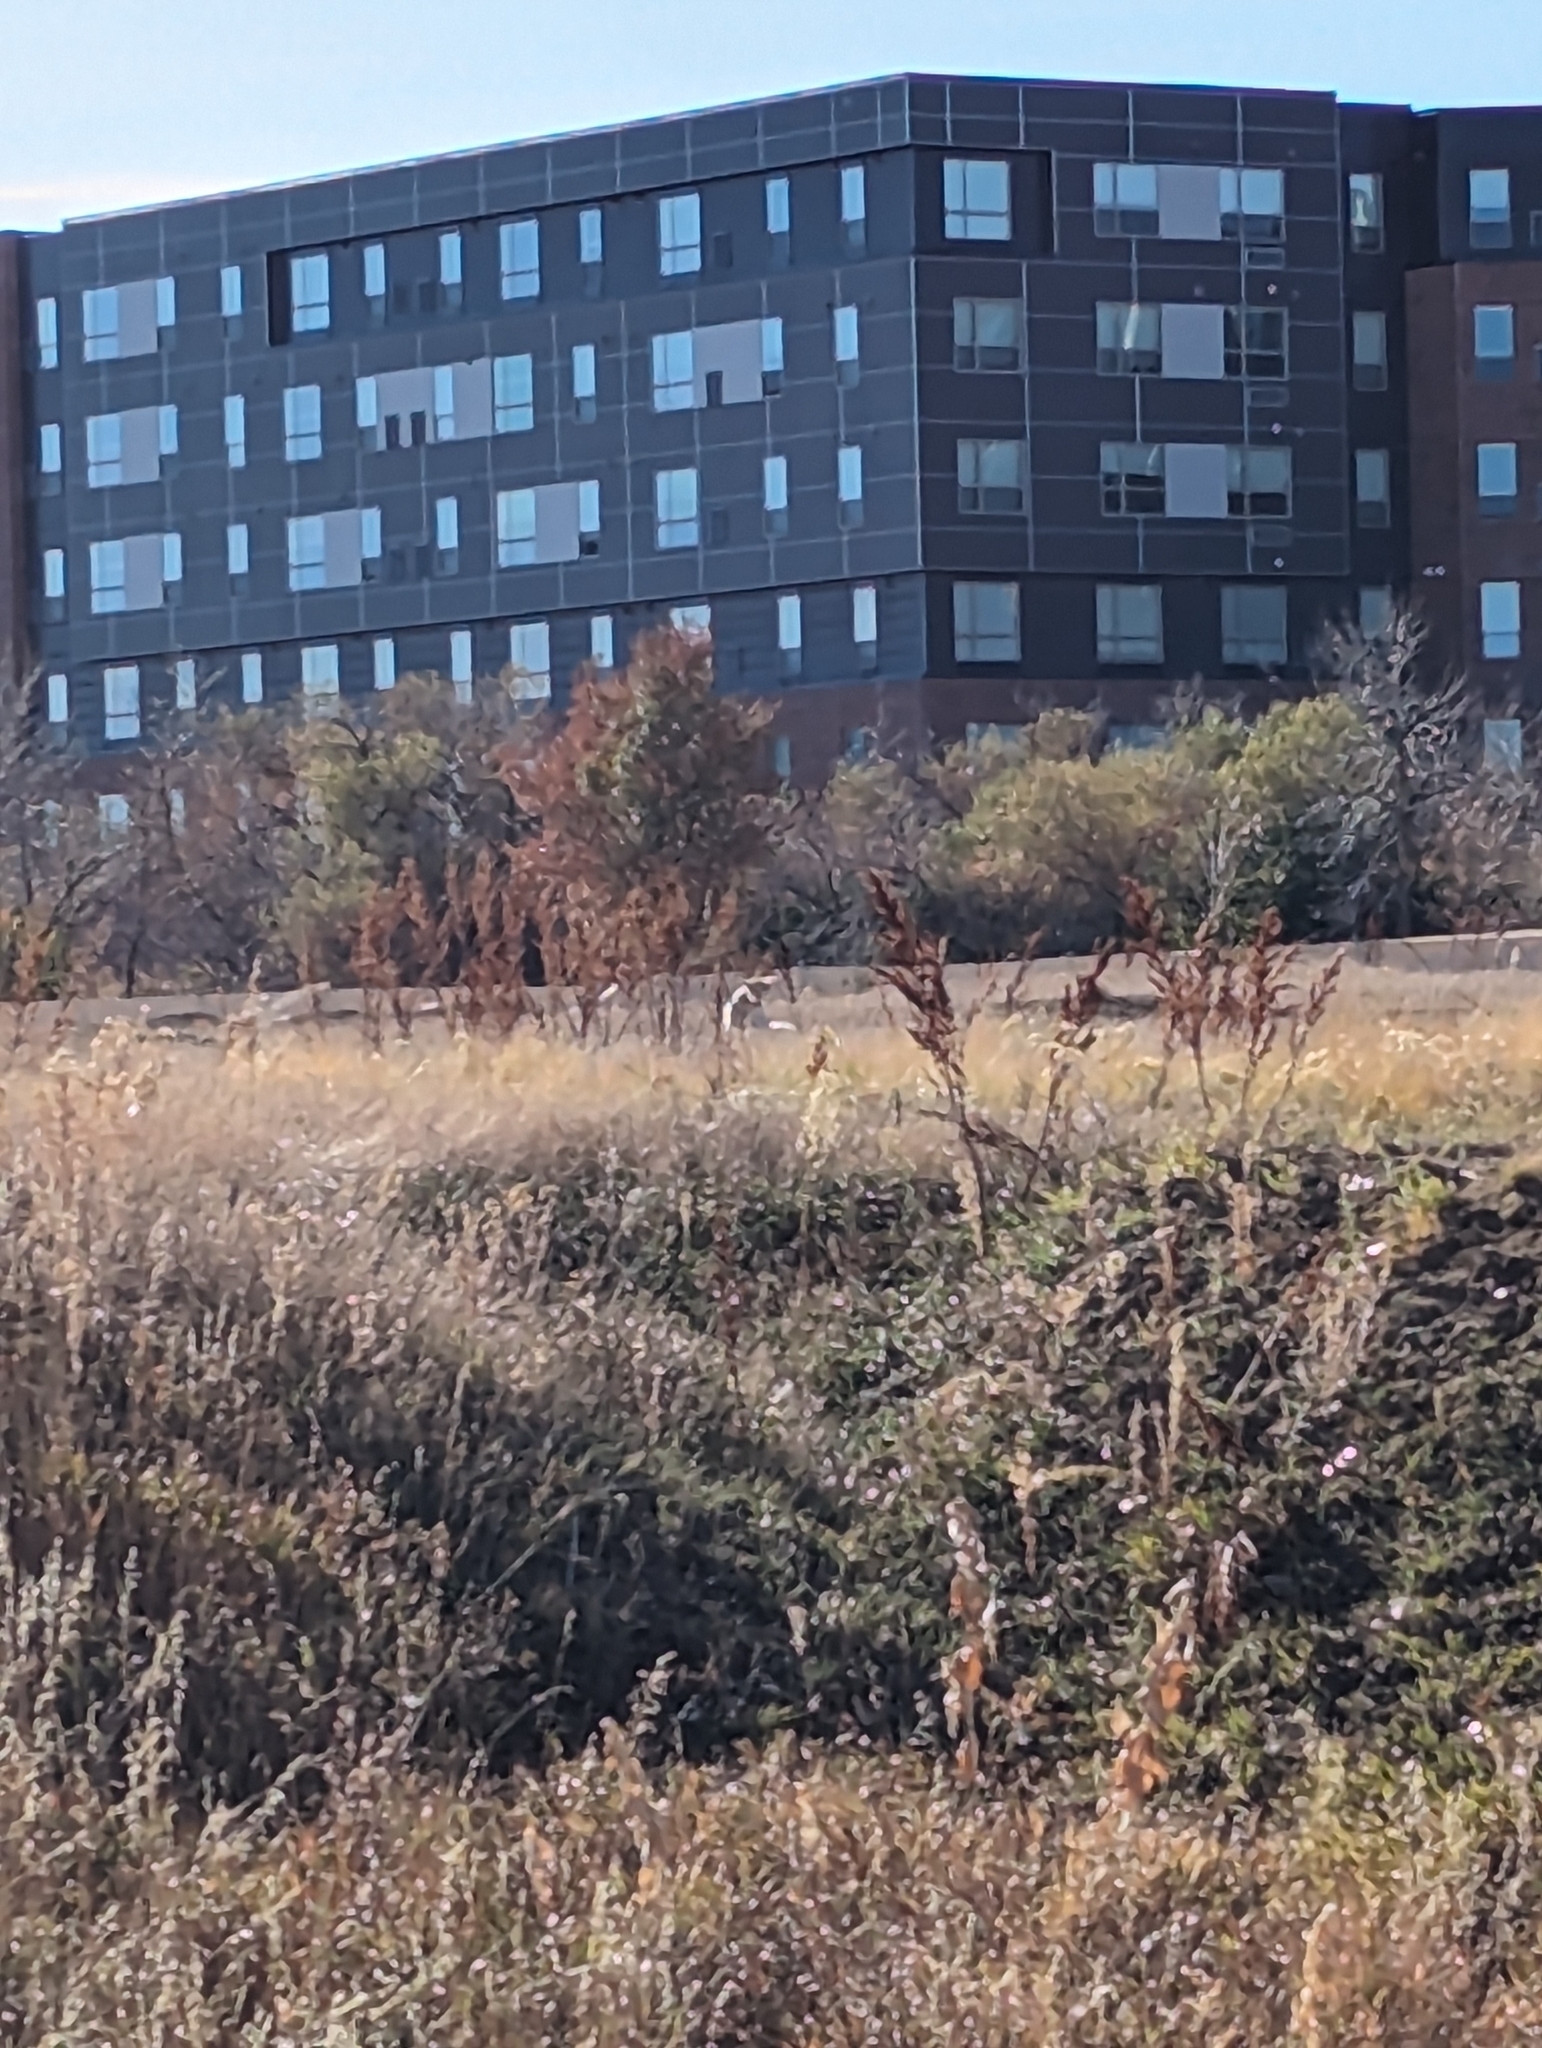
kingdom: Animalia
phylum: Chordata
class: Mammalia
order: Carnivora
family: Canidae
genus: Canis
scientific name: Canis latrans
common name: Coyote
